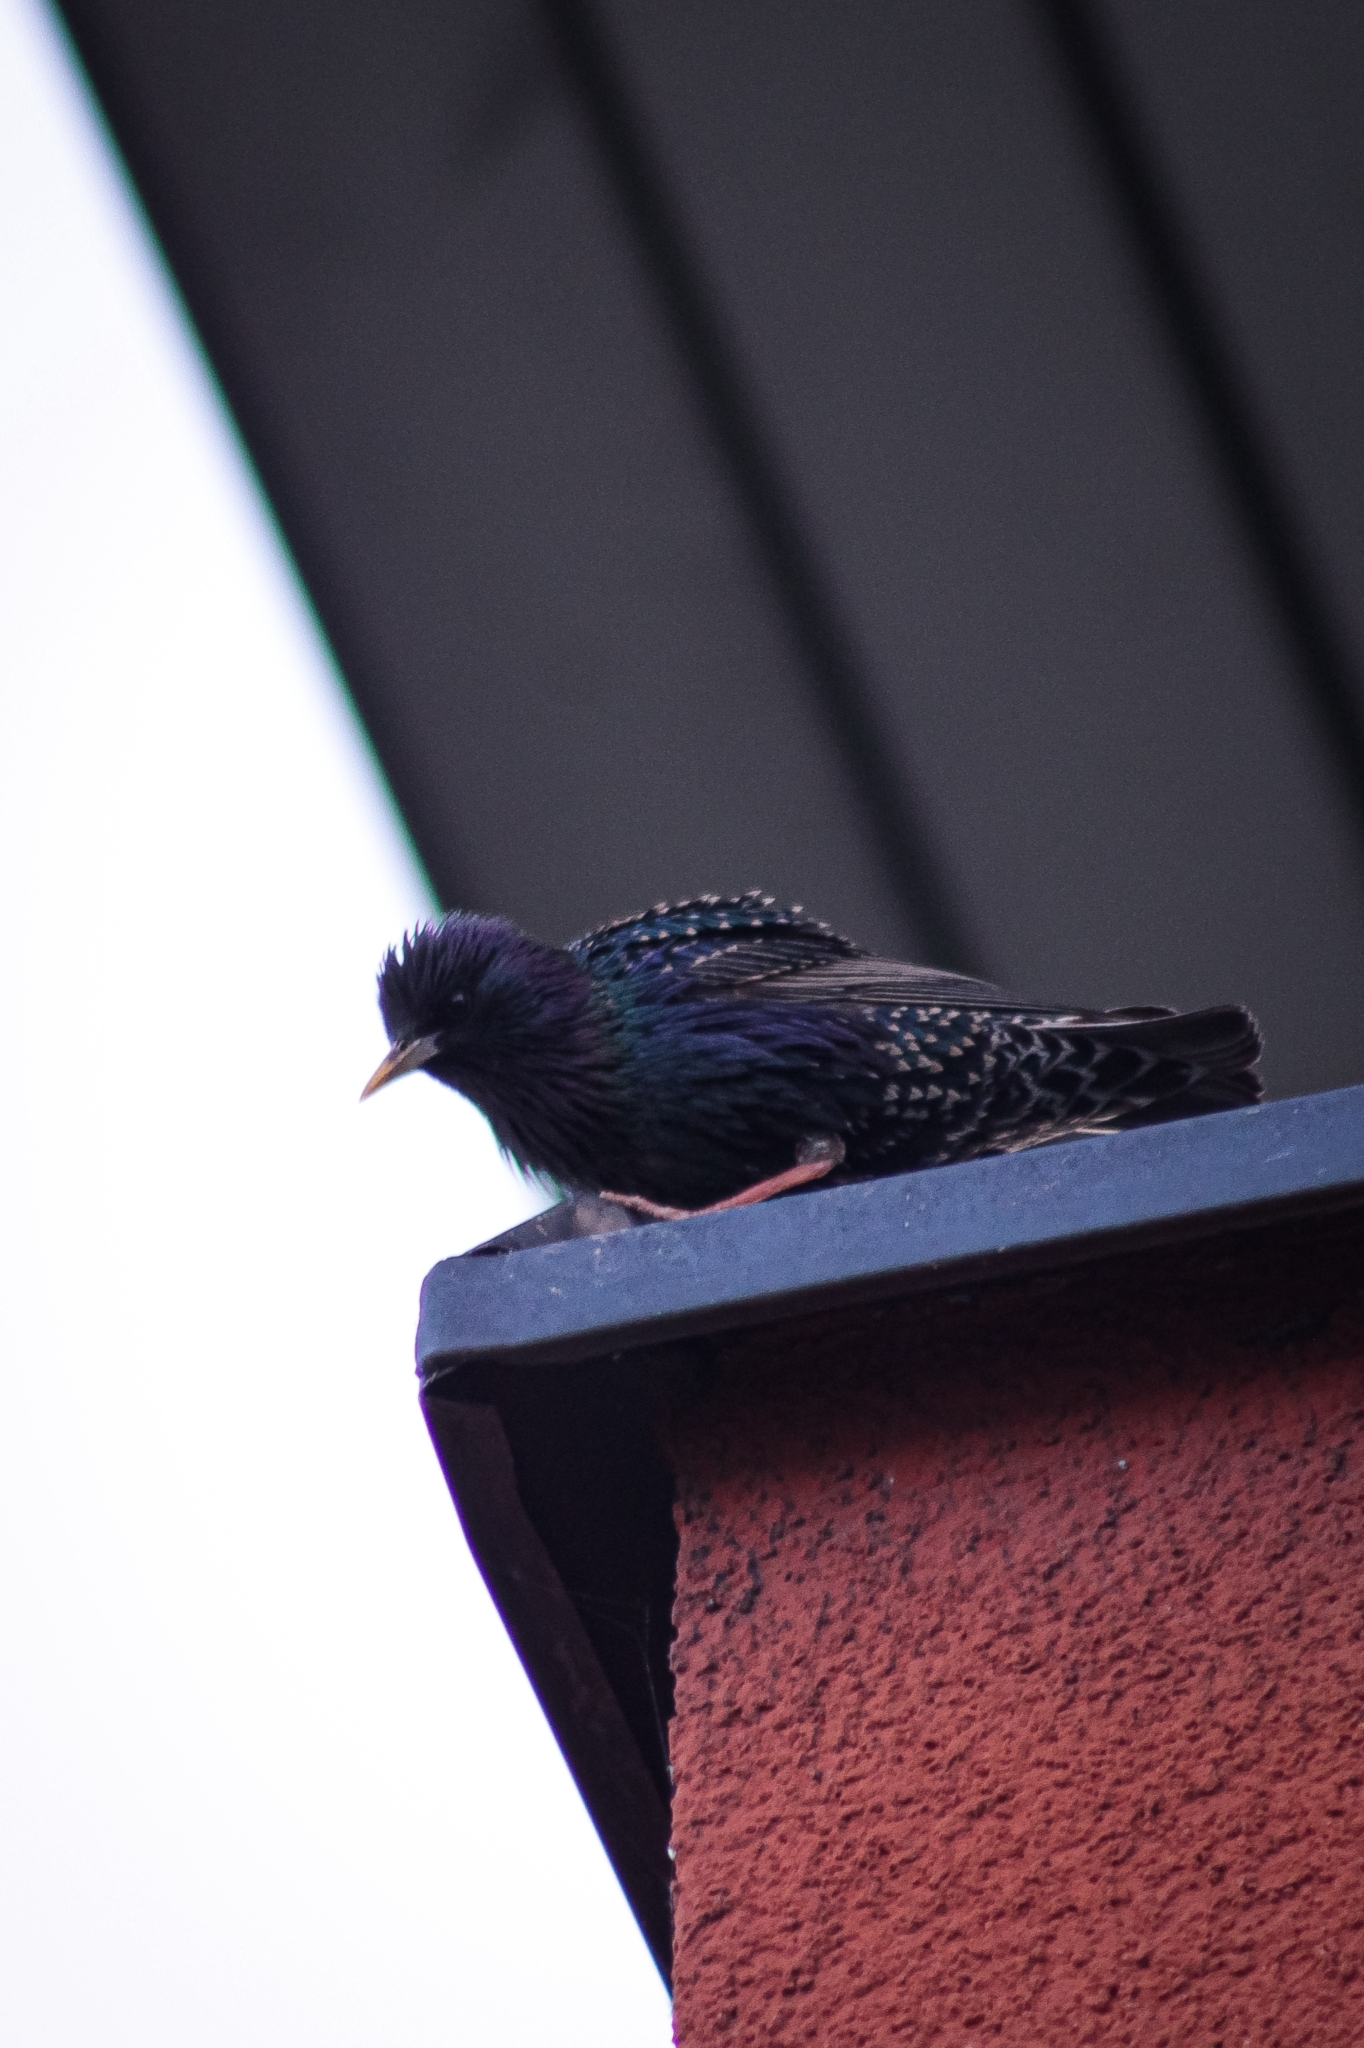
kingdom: Animalia
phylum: Chordata
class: Aves
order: Passeriformes
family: Sturnidae
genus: Sturnus
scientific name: Sturnus vulgaris
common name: Common starling
